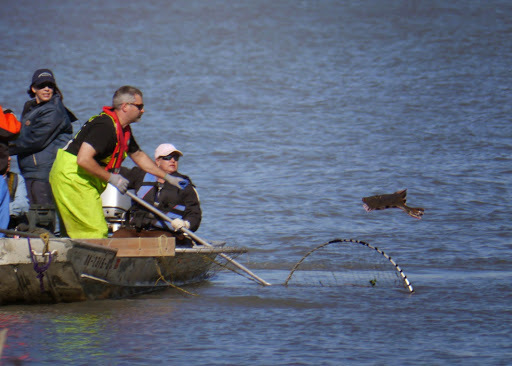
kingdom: Animalia
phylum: Chordata
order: Pleuronectiformes
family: Pleuronectidae
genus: Platichthys
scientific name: Platichthys stellatus
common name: Starry flounder
